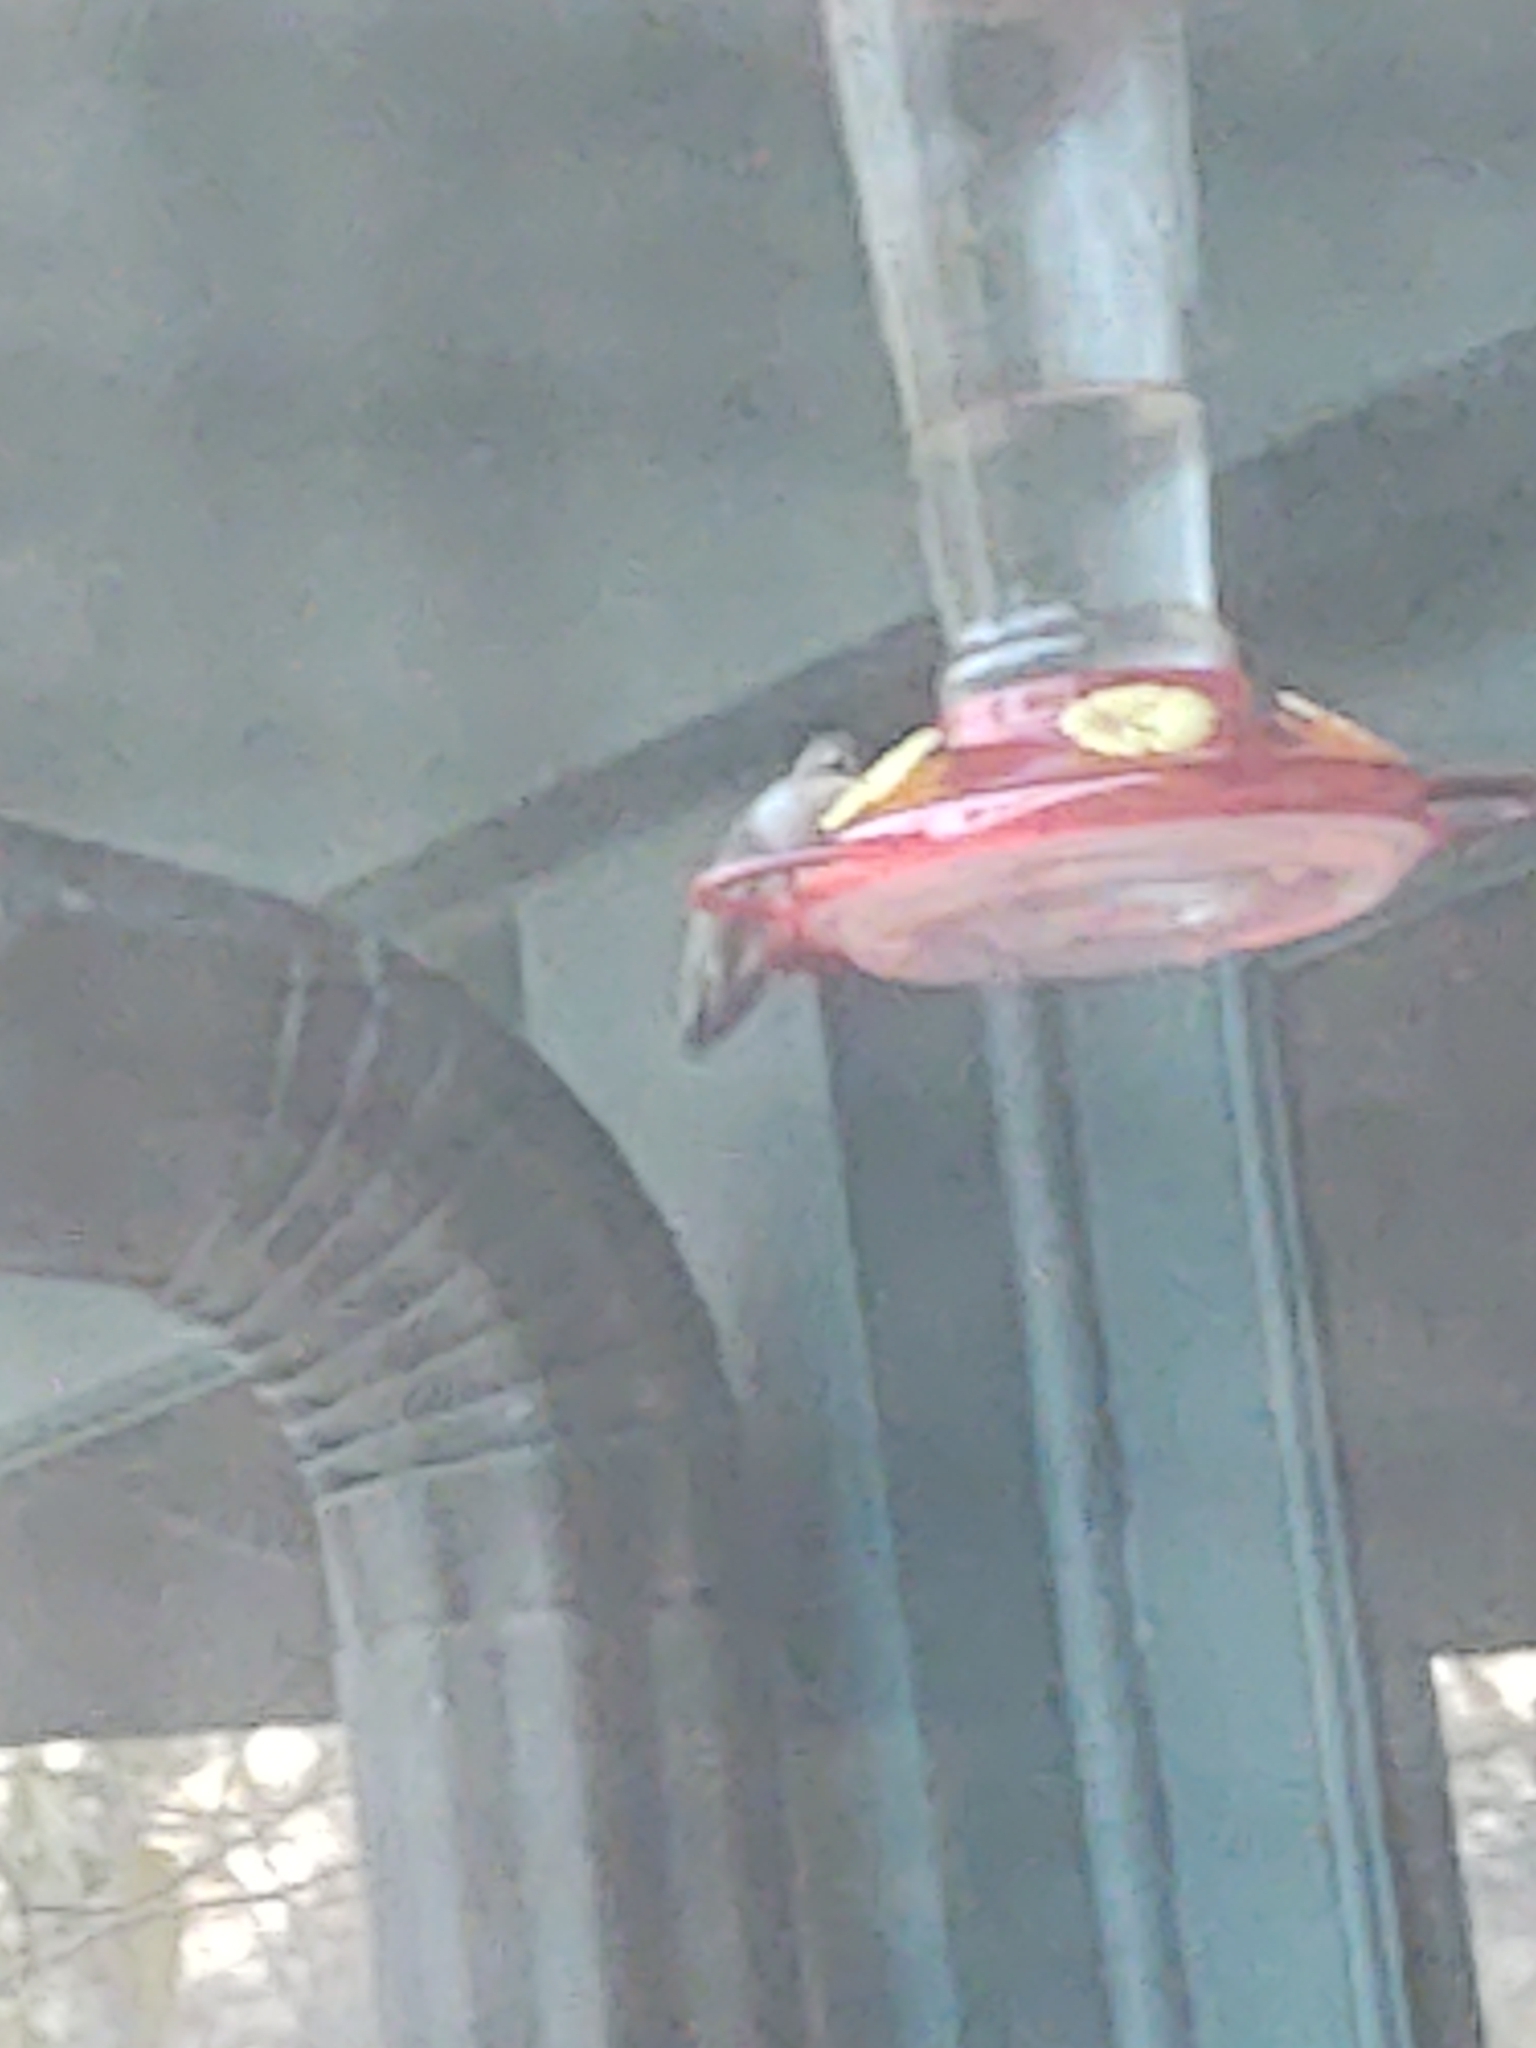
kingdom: Animalia
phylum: Chordata
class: Aves
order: Apodiformes
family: Trochilidae
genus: Archilochus
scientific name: Archilochus colubris
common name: Ruby-throated hummingbird
